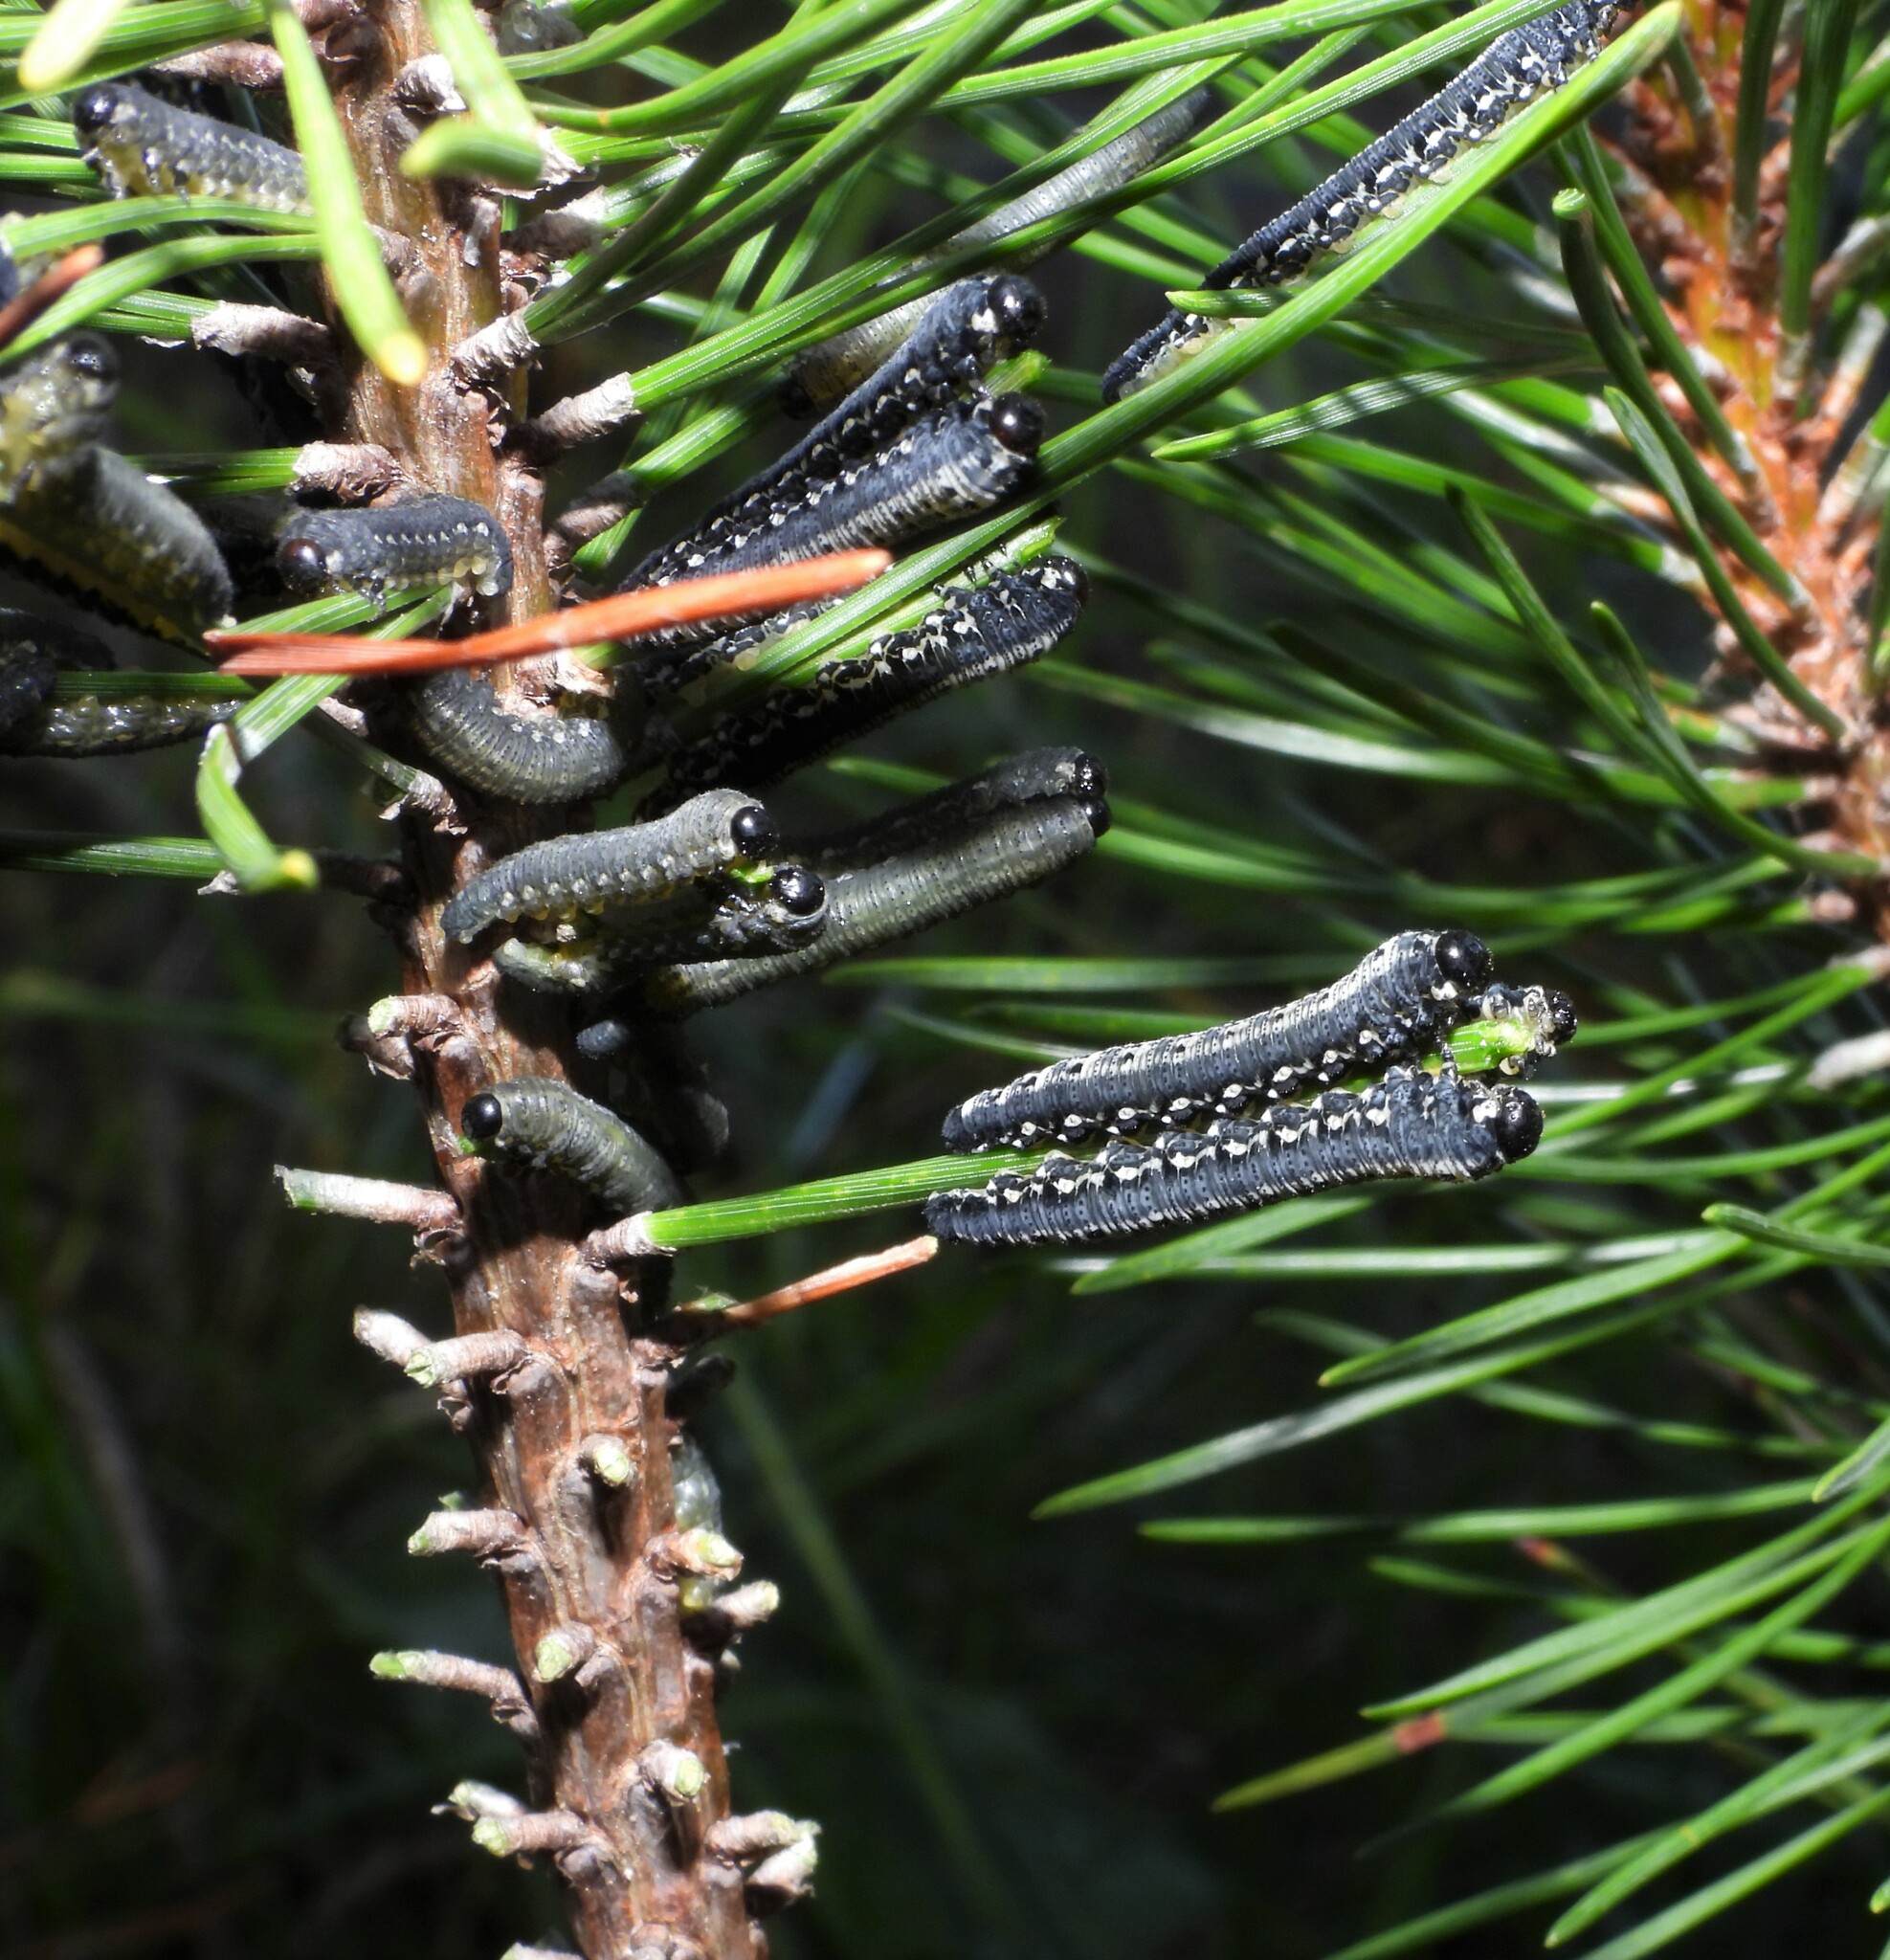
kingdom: Animalia
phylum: Arthropoda
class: Insecta
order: Hymenoptera
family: Diprionidae
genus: Gilpinia
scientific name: Gilpinia socia
